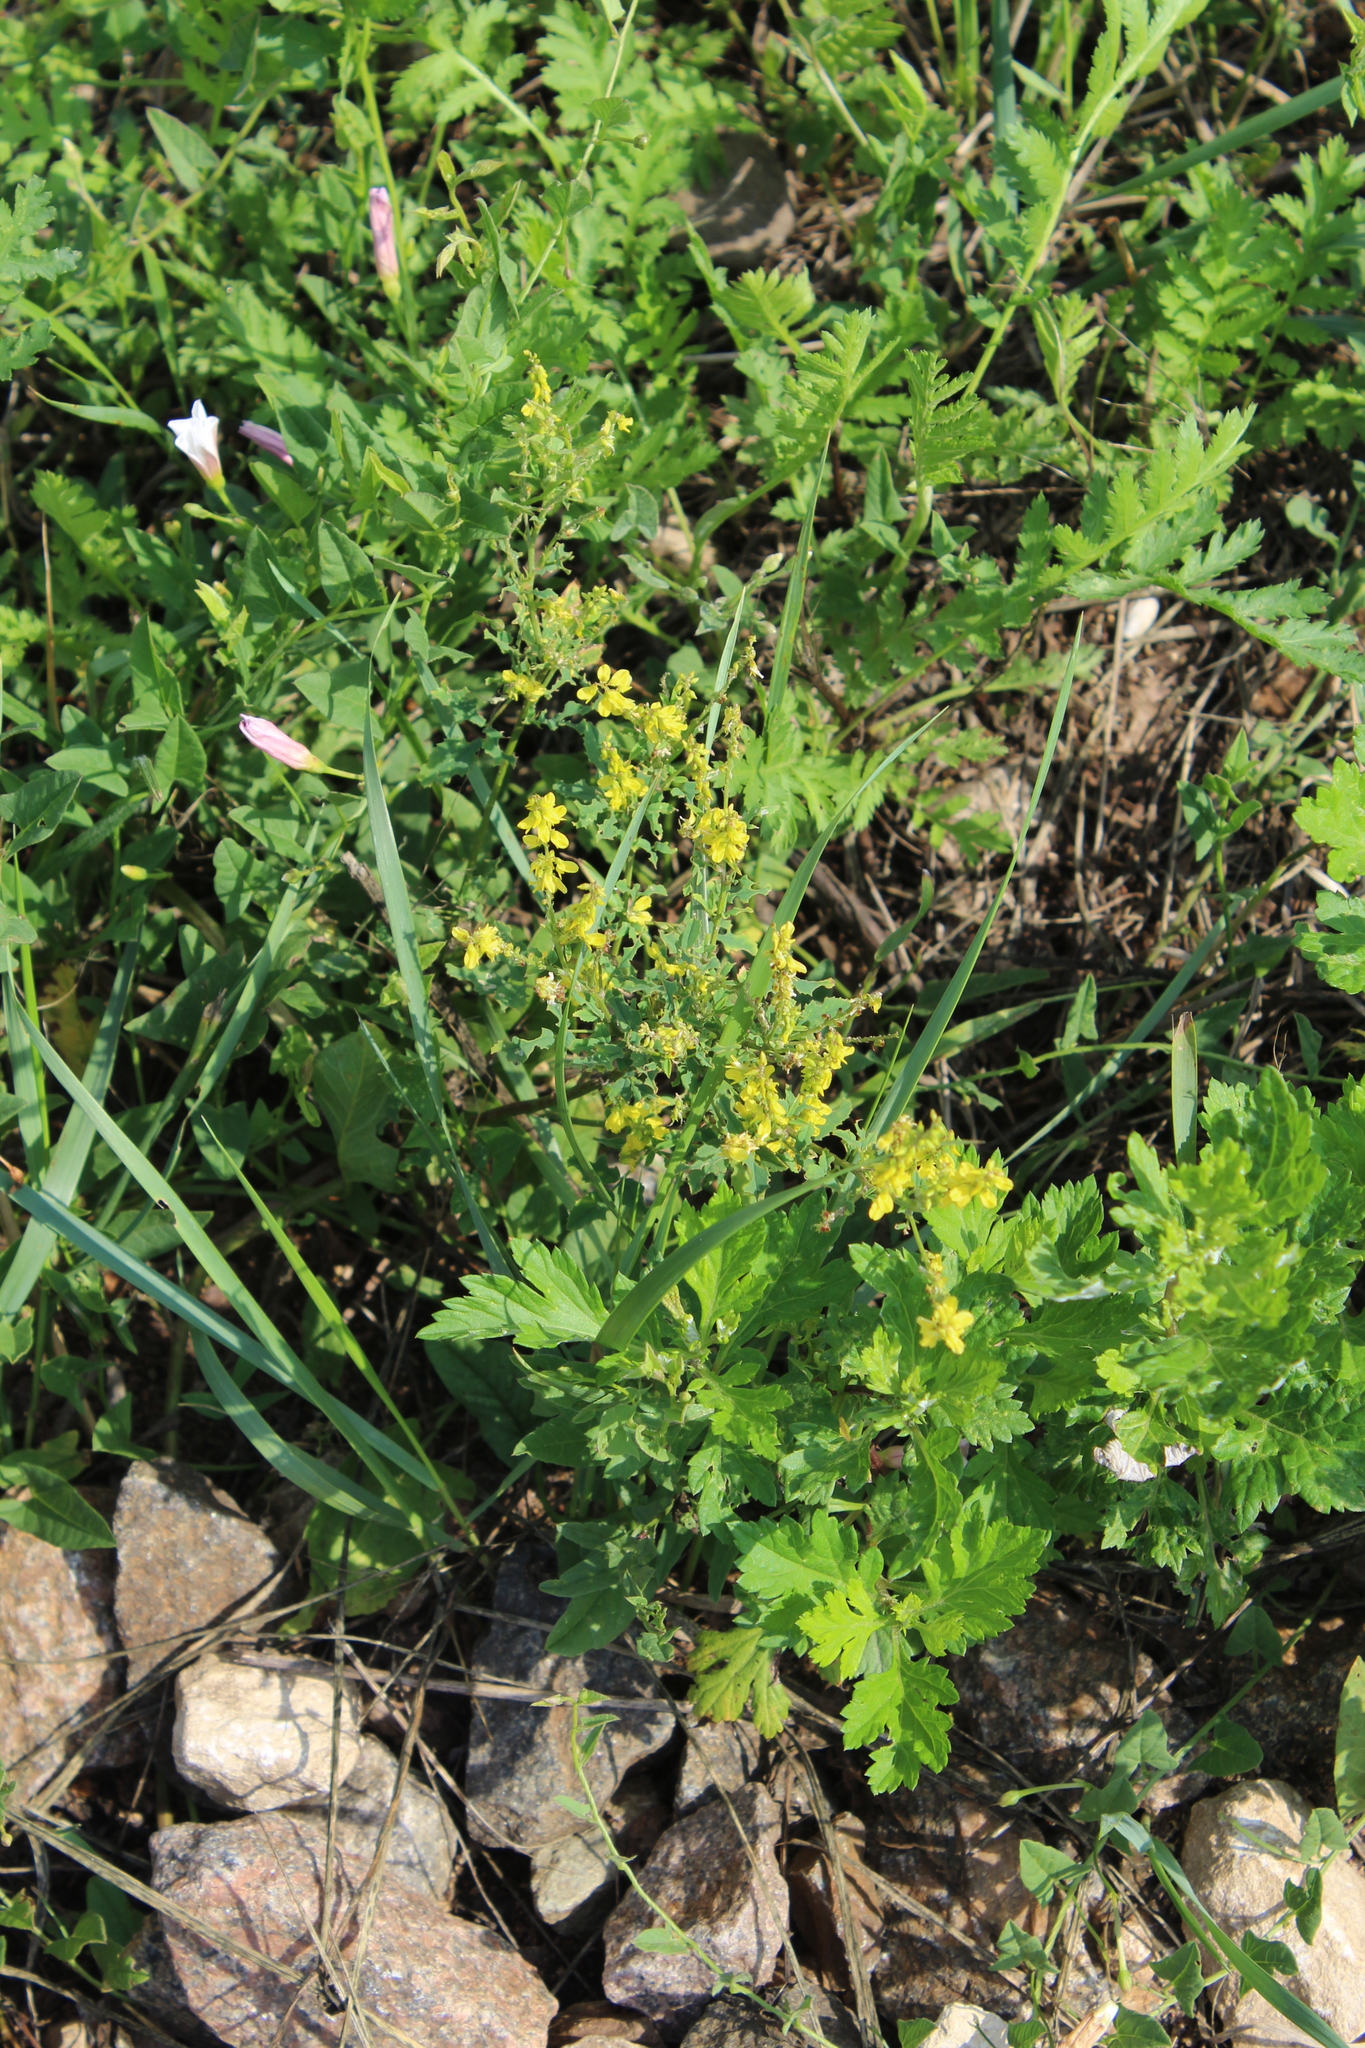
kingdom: Plantae
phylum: Tracheophyta
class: Magnoliopsida
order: Fabales
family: Fabaceae
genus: Melilotus
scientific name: Melilotus officinalis
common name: Sweetclover
